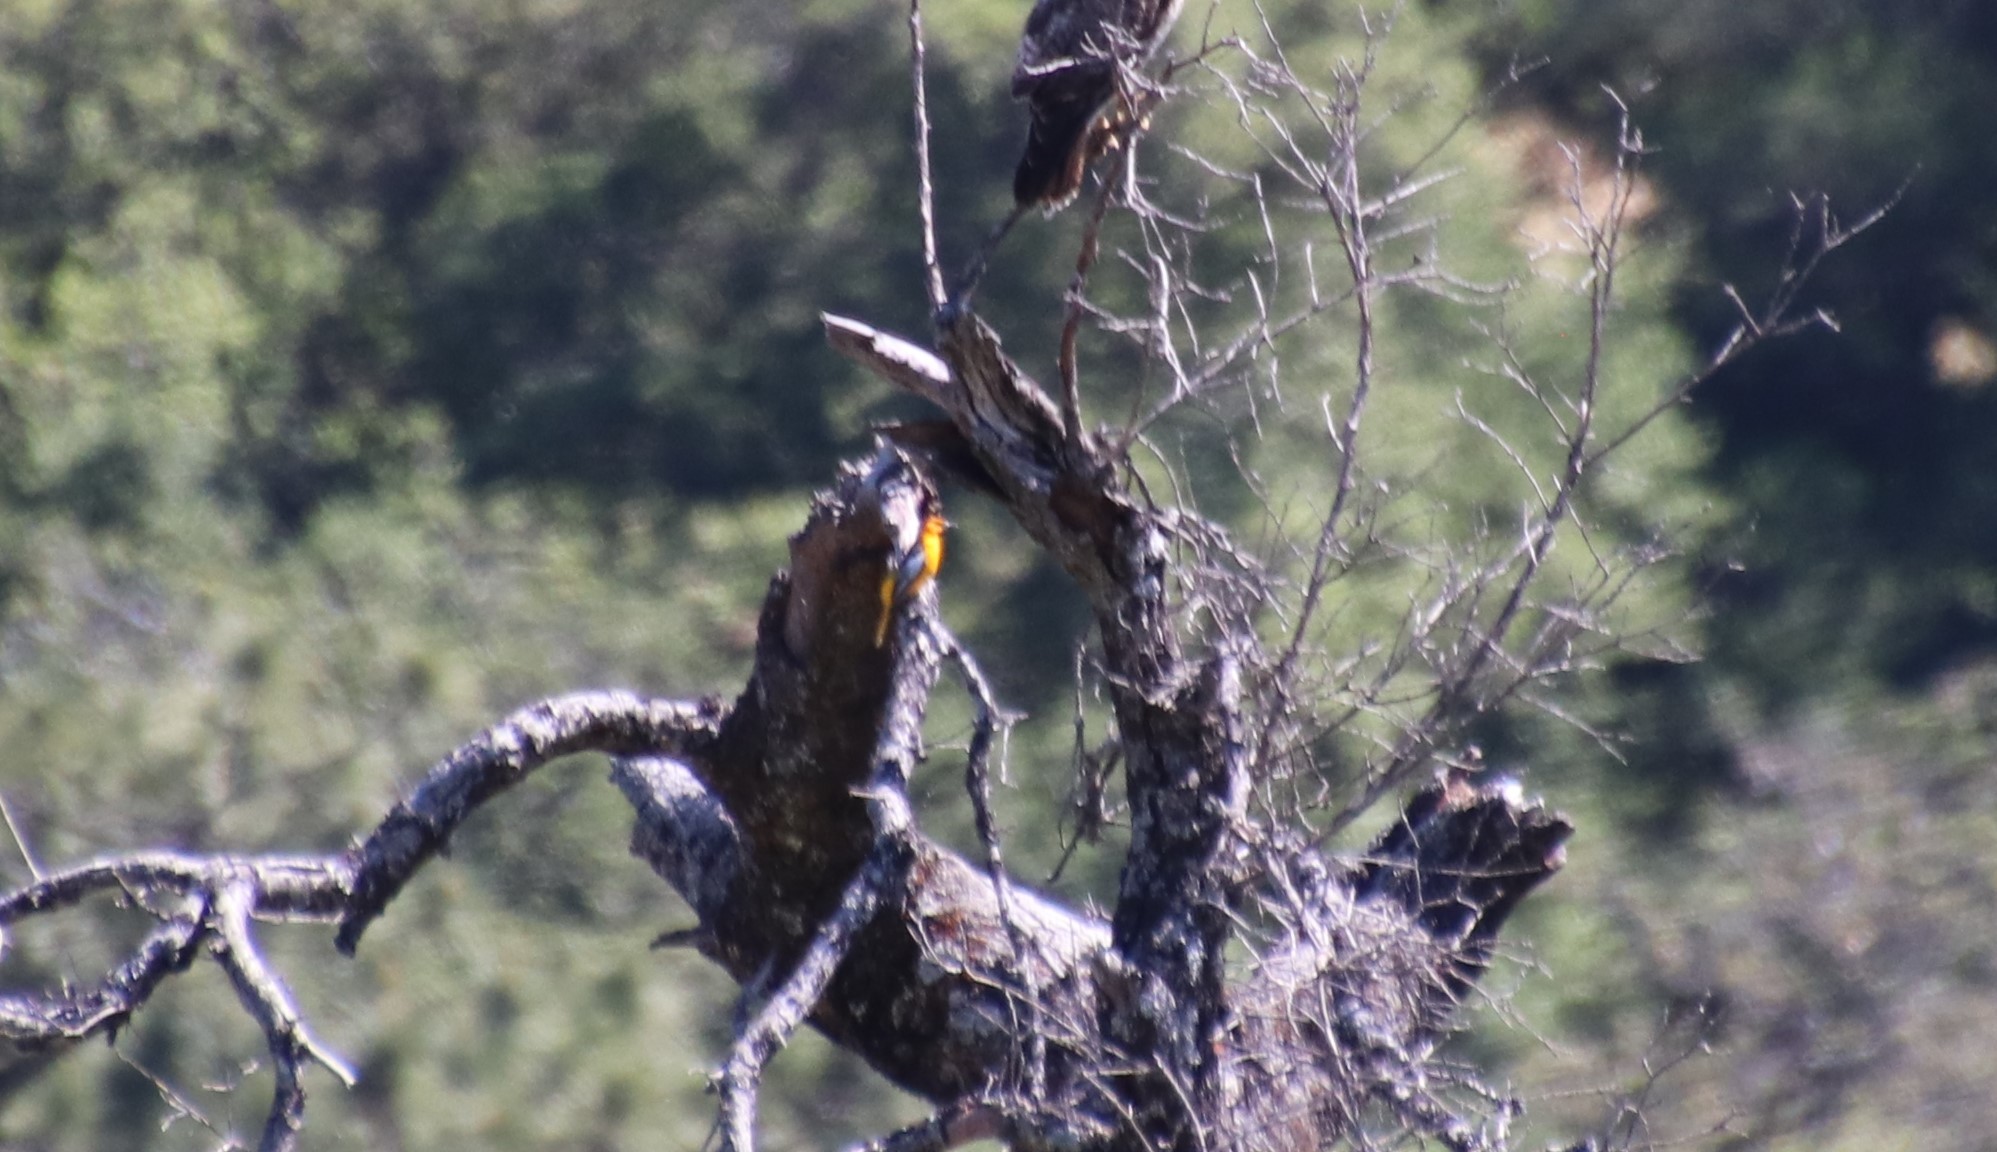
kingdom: Animalia
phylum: Chordata
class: Aves
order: Passeriformes
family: Icteridae
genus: Icterus
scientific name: Icterus bullockii
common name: Bullock's oriole
